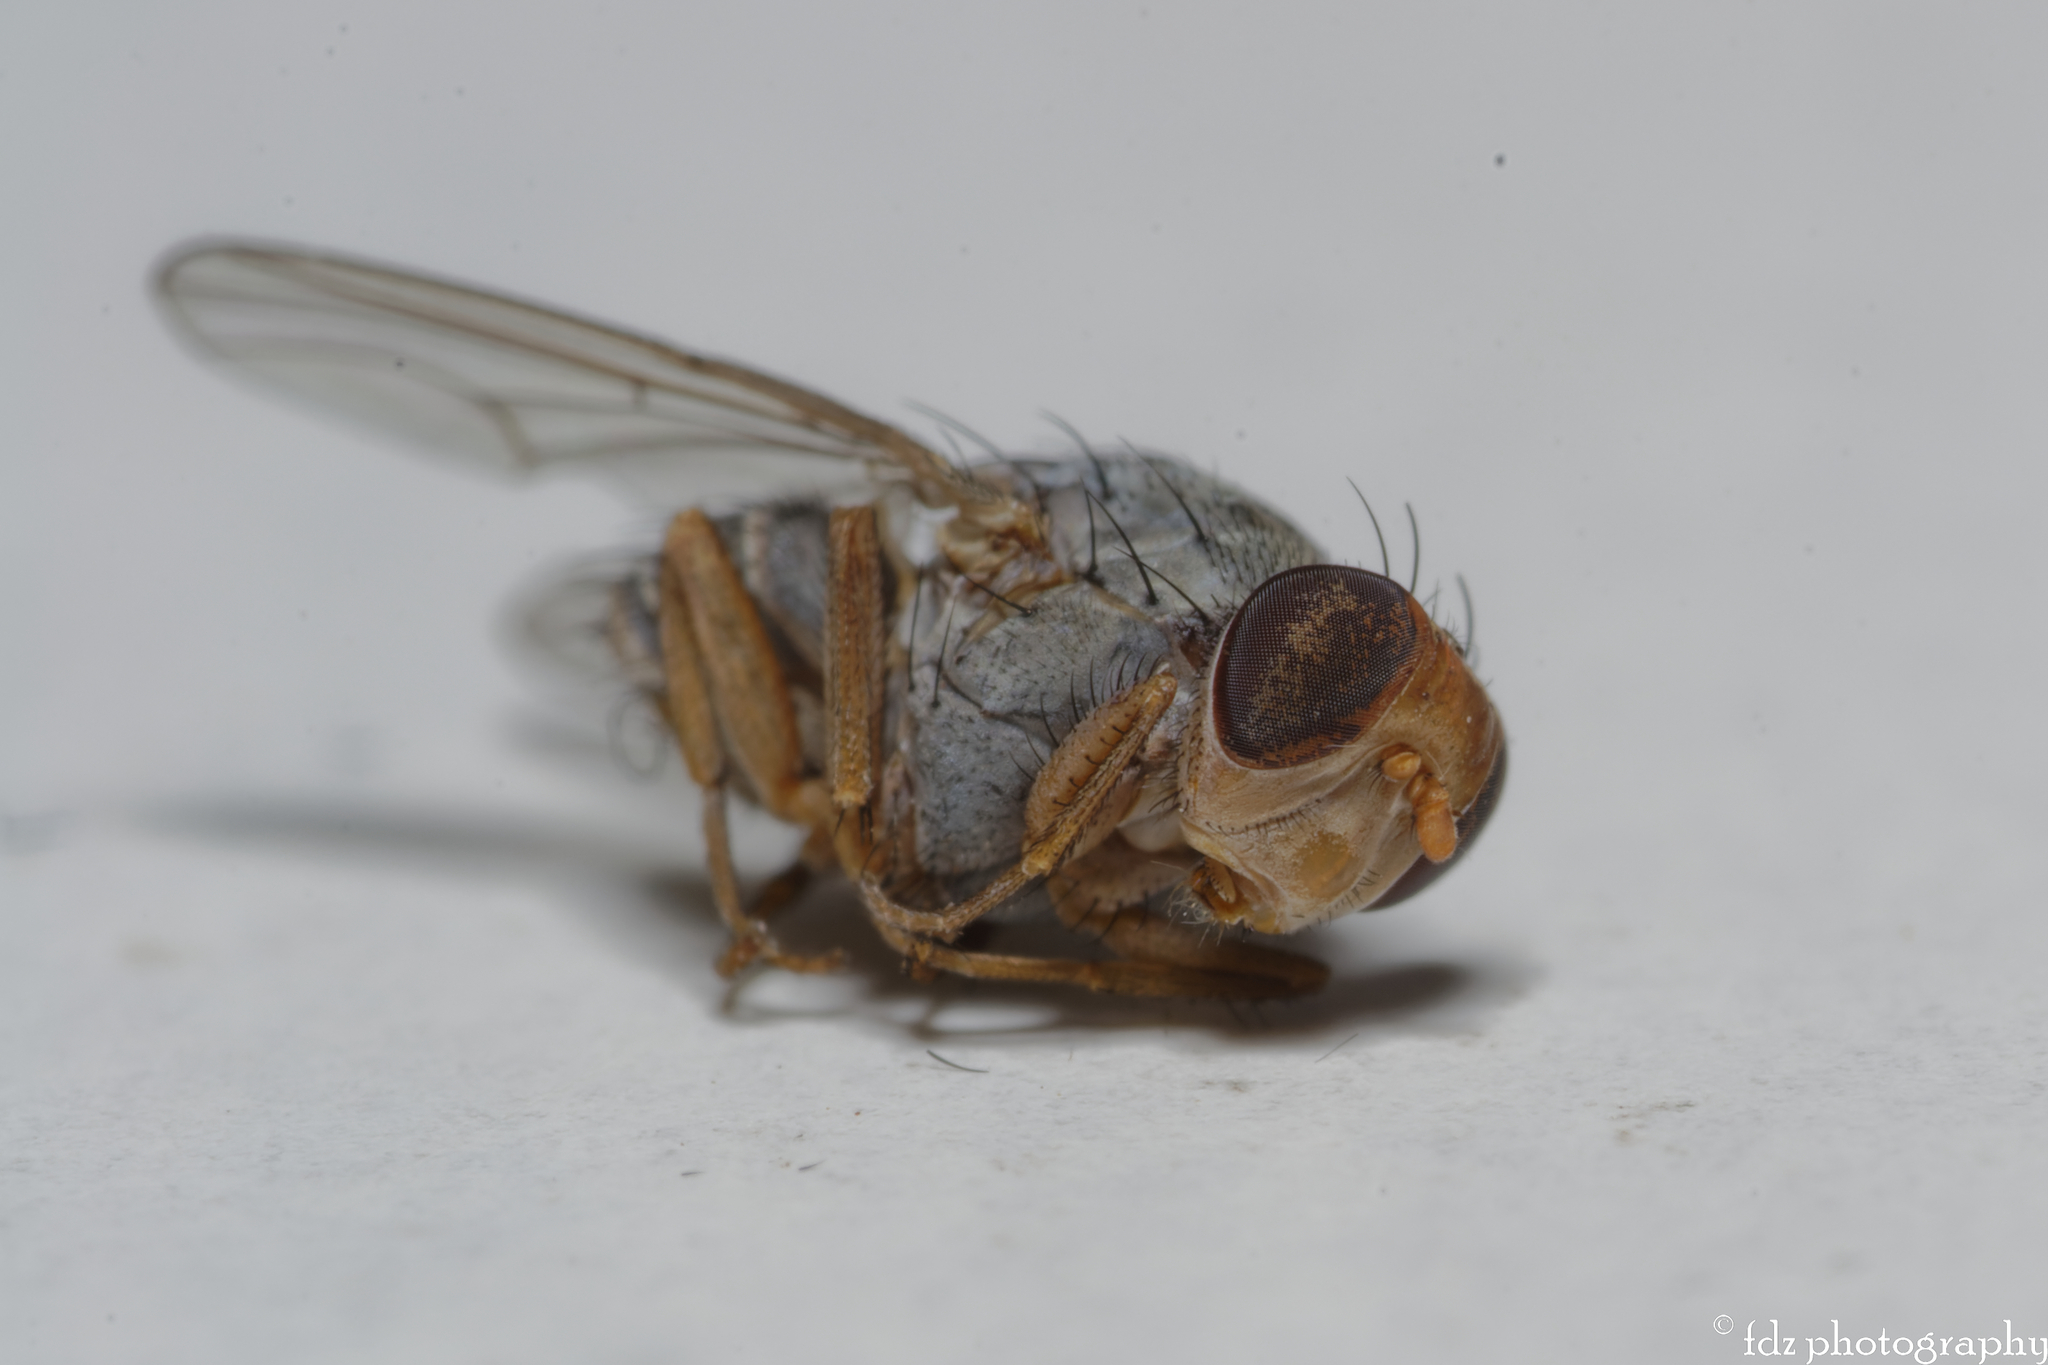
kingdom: Animalia
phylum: Arthropoda
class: Insecta
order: Diptera
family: Lauxaniidae
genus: Prosopomyia
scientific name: Prosopomyia pallida
